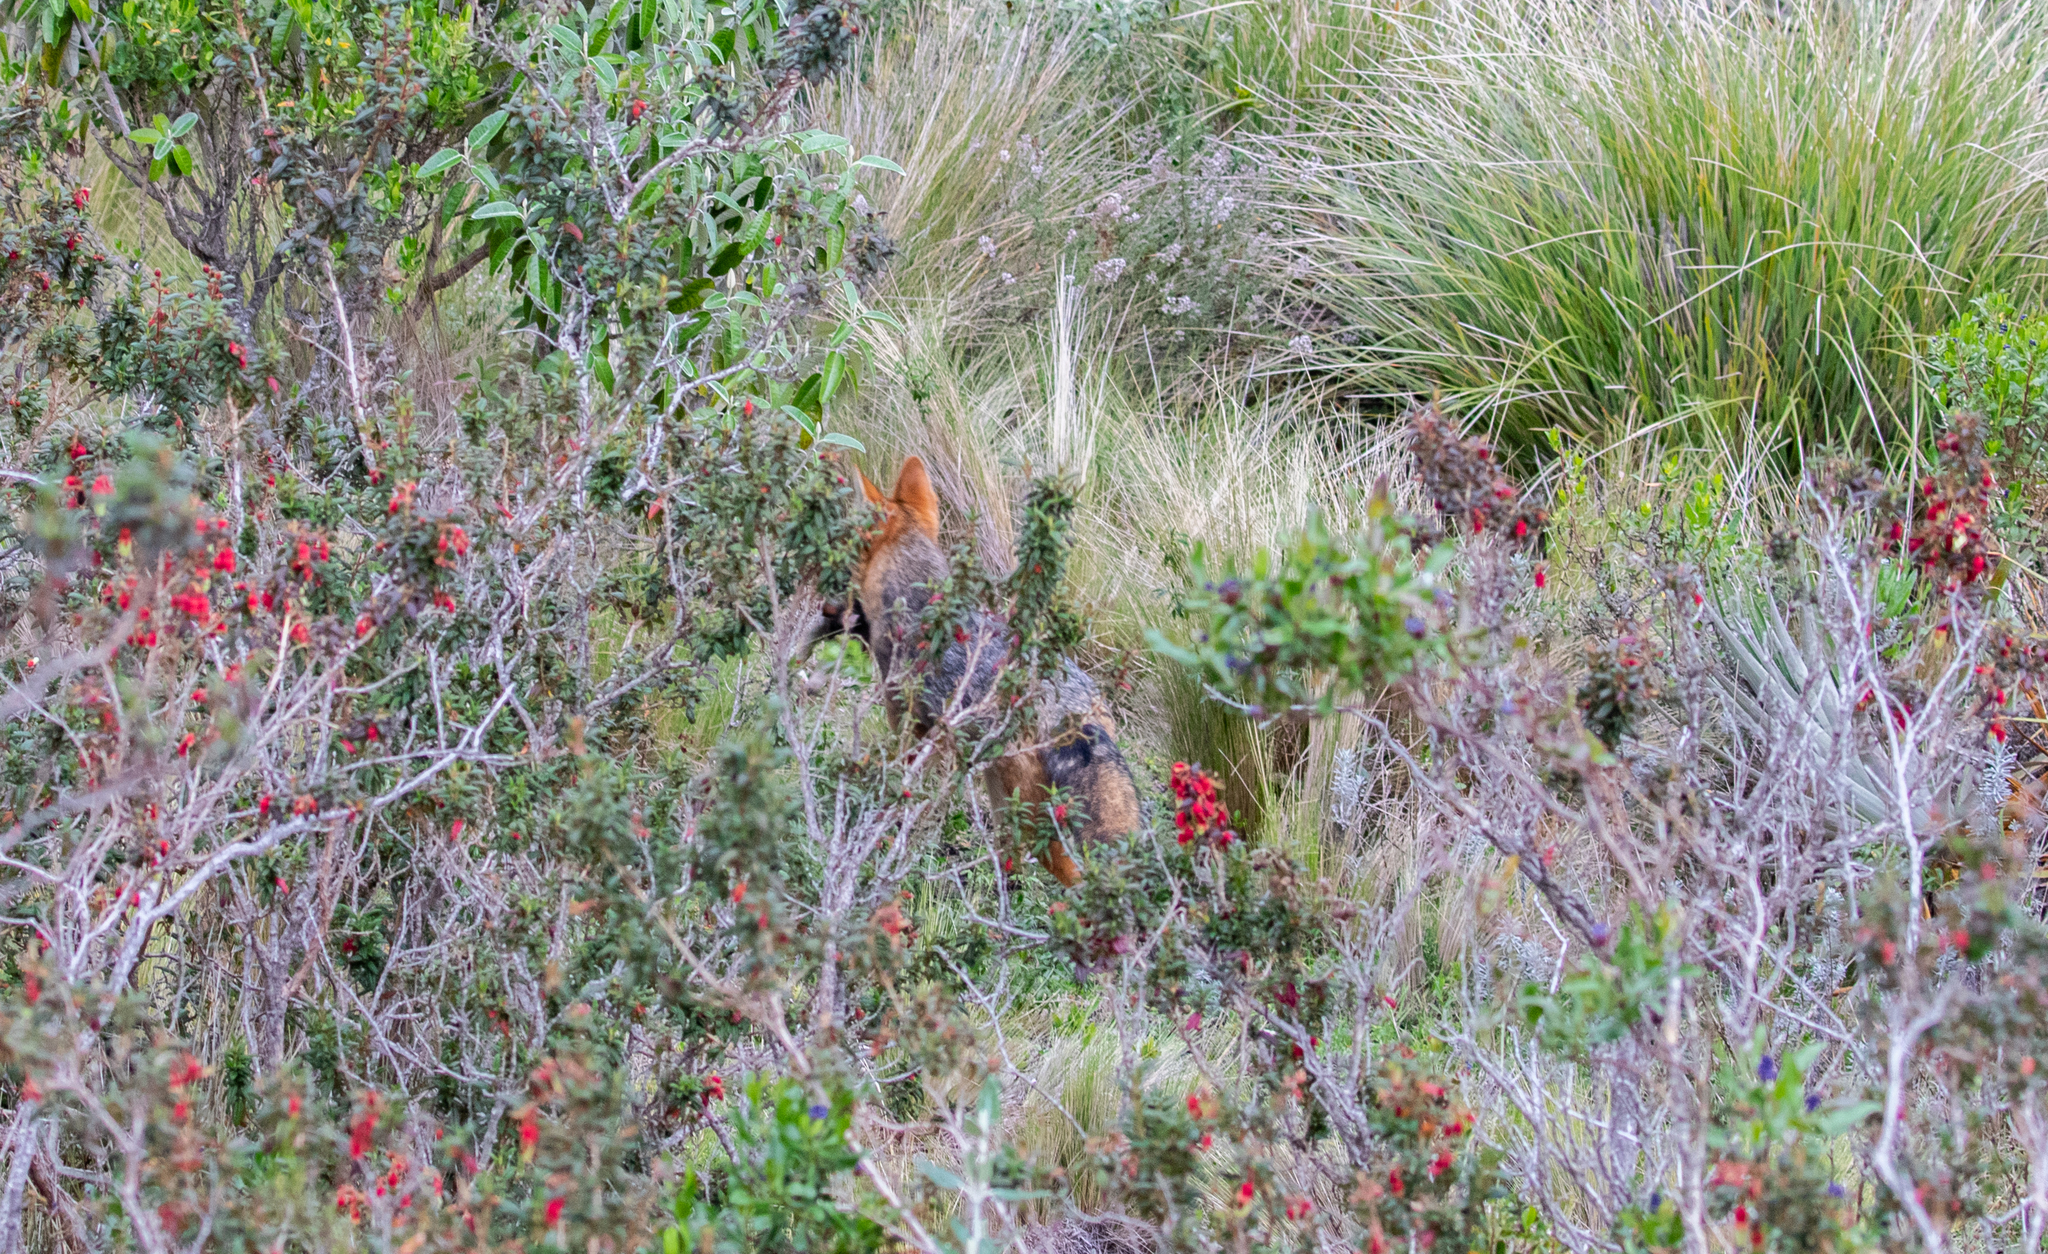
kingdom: Animalia
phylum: Chordata
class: Mammalia
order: Carnivora
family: Canidae
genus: Lycalopex
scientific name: Lycalopex culpaeus
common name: Culpeo
